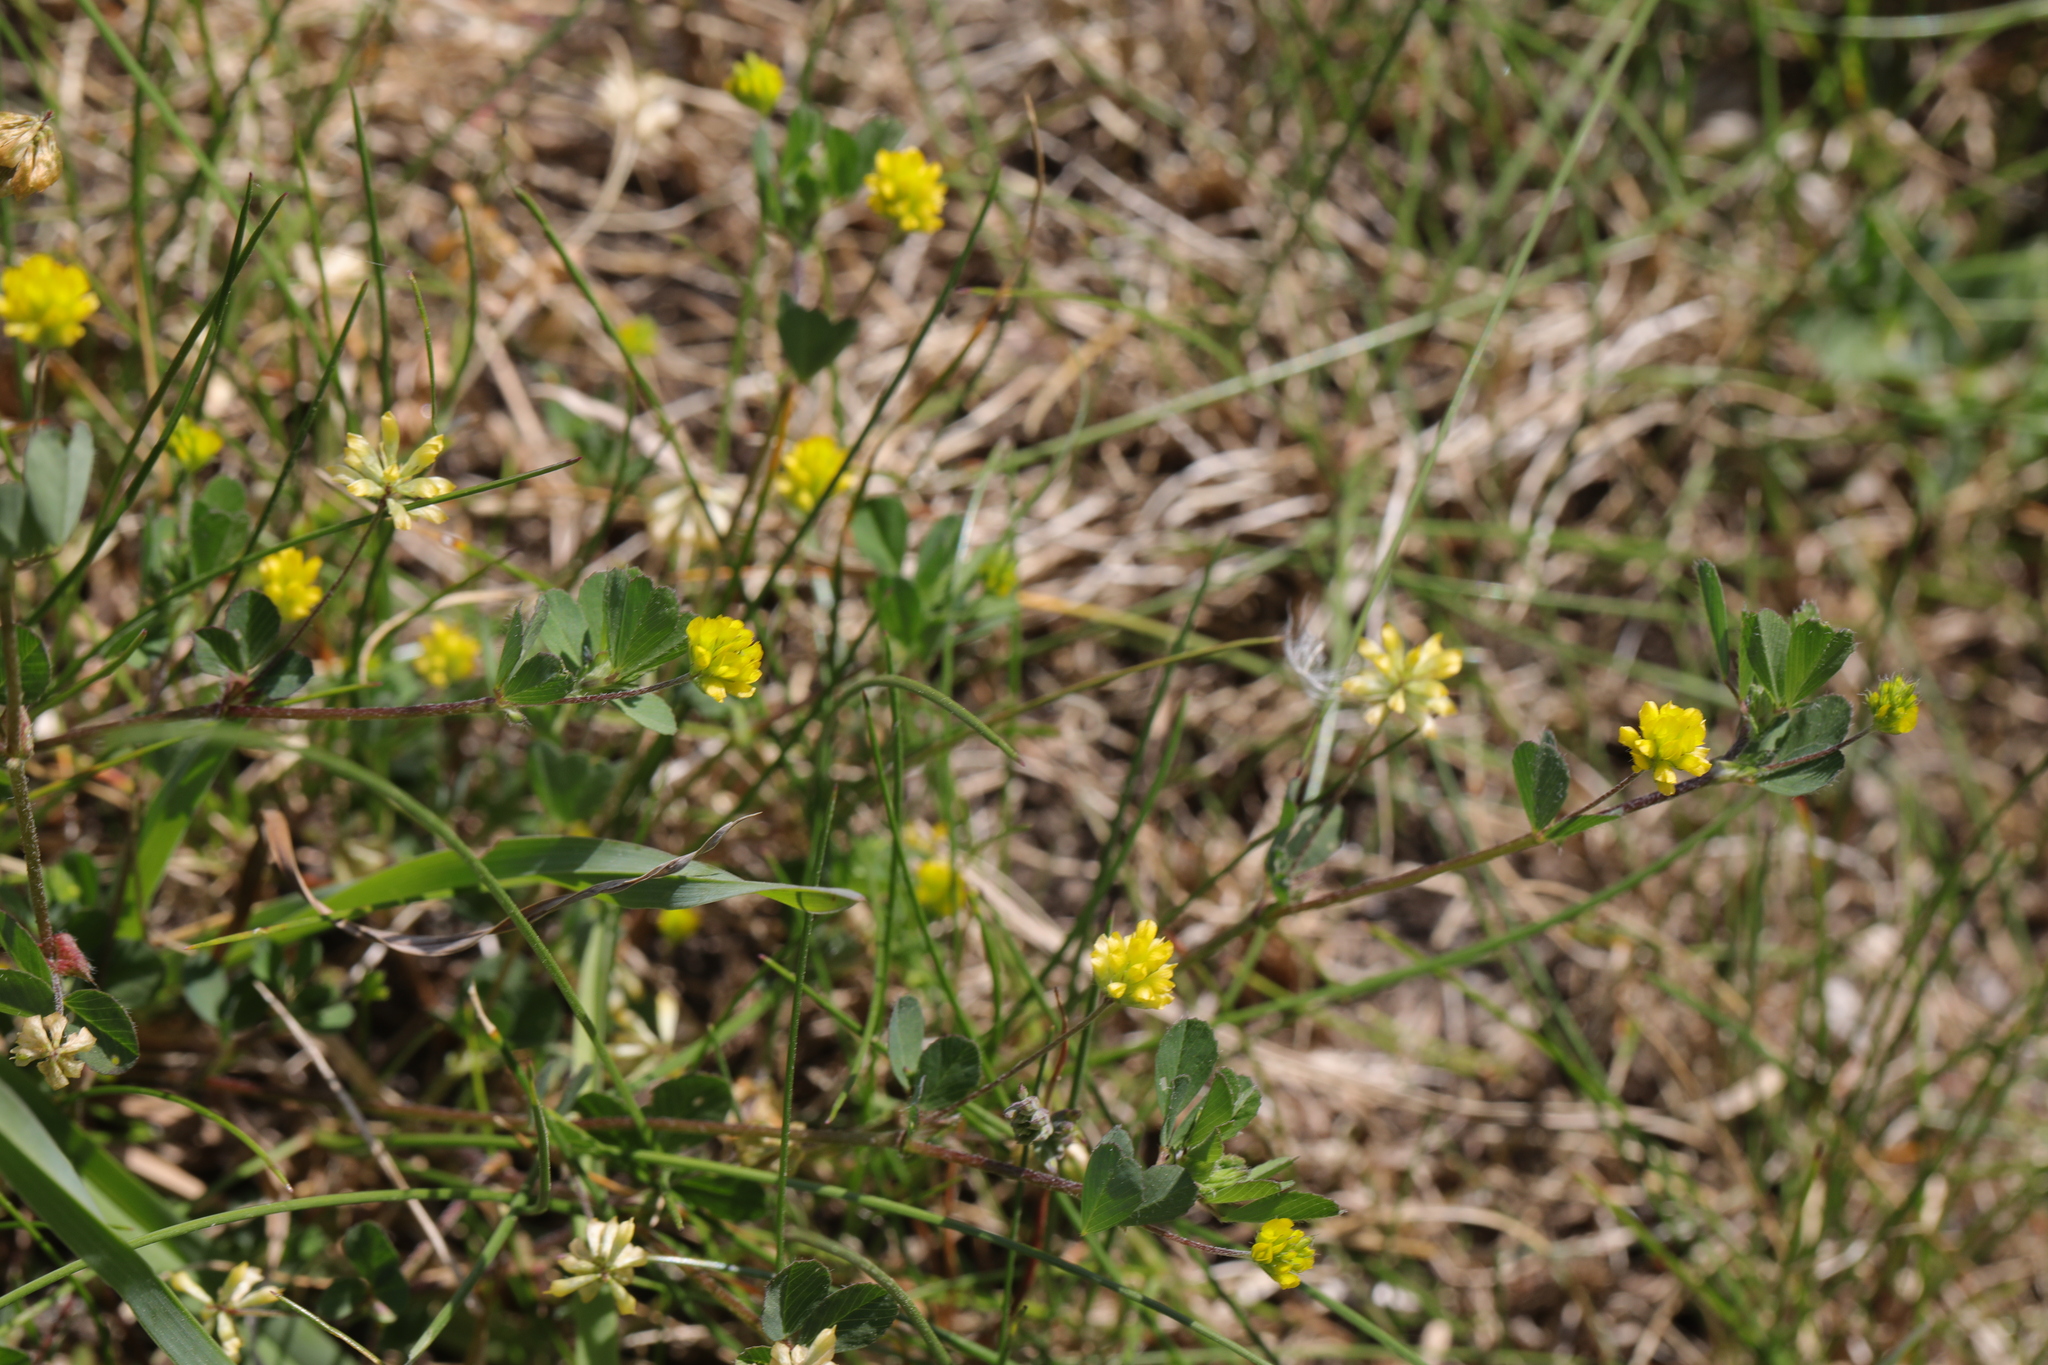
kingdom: Plantae
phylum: Tracheophyta
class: Magnoliopsida
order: Fabales
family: Fabaceae
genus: Trifolium
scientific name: Trifolium dubium
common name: Suckling clover
